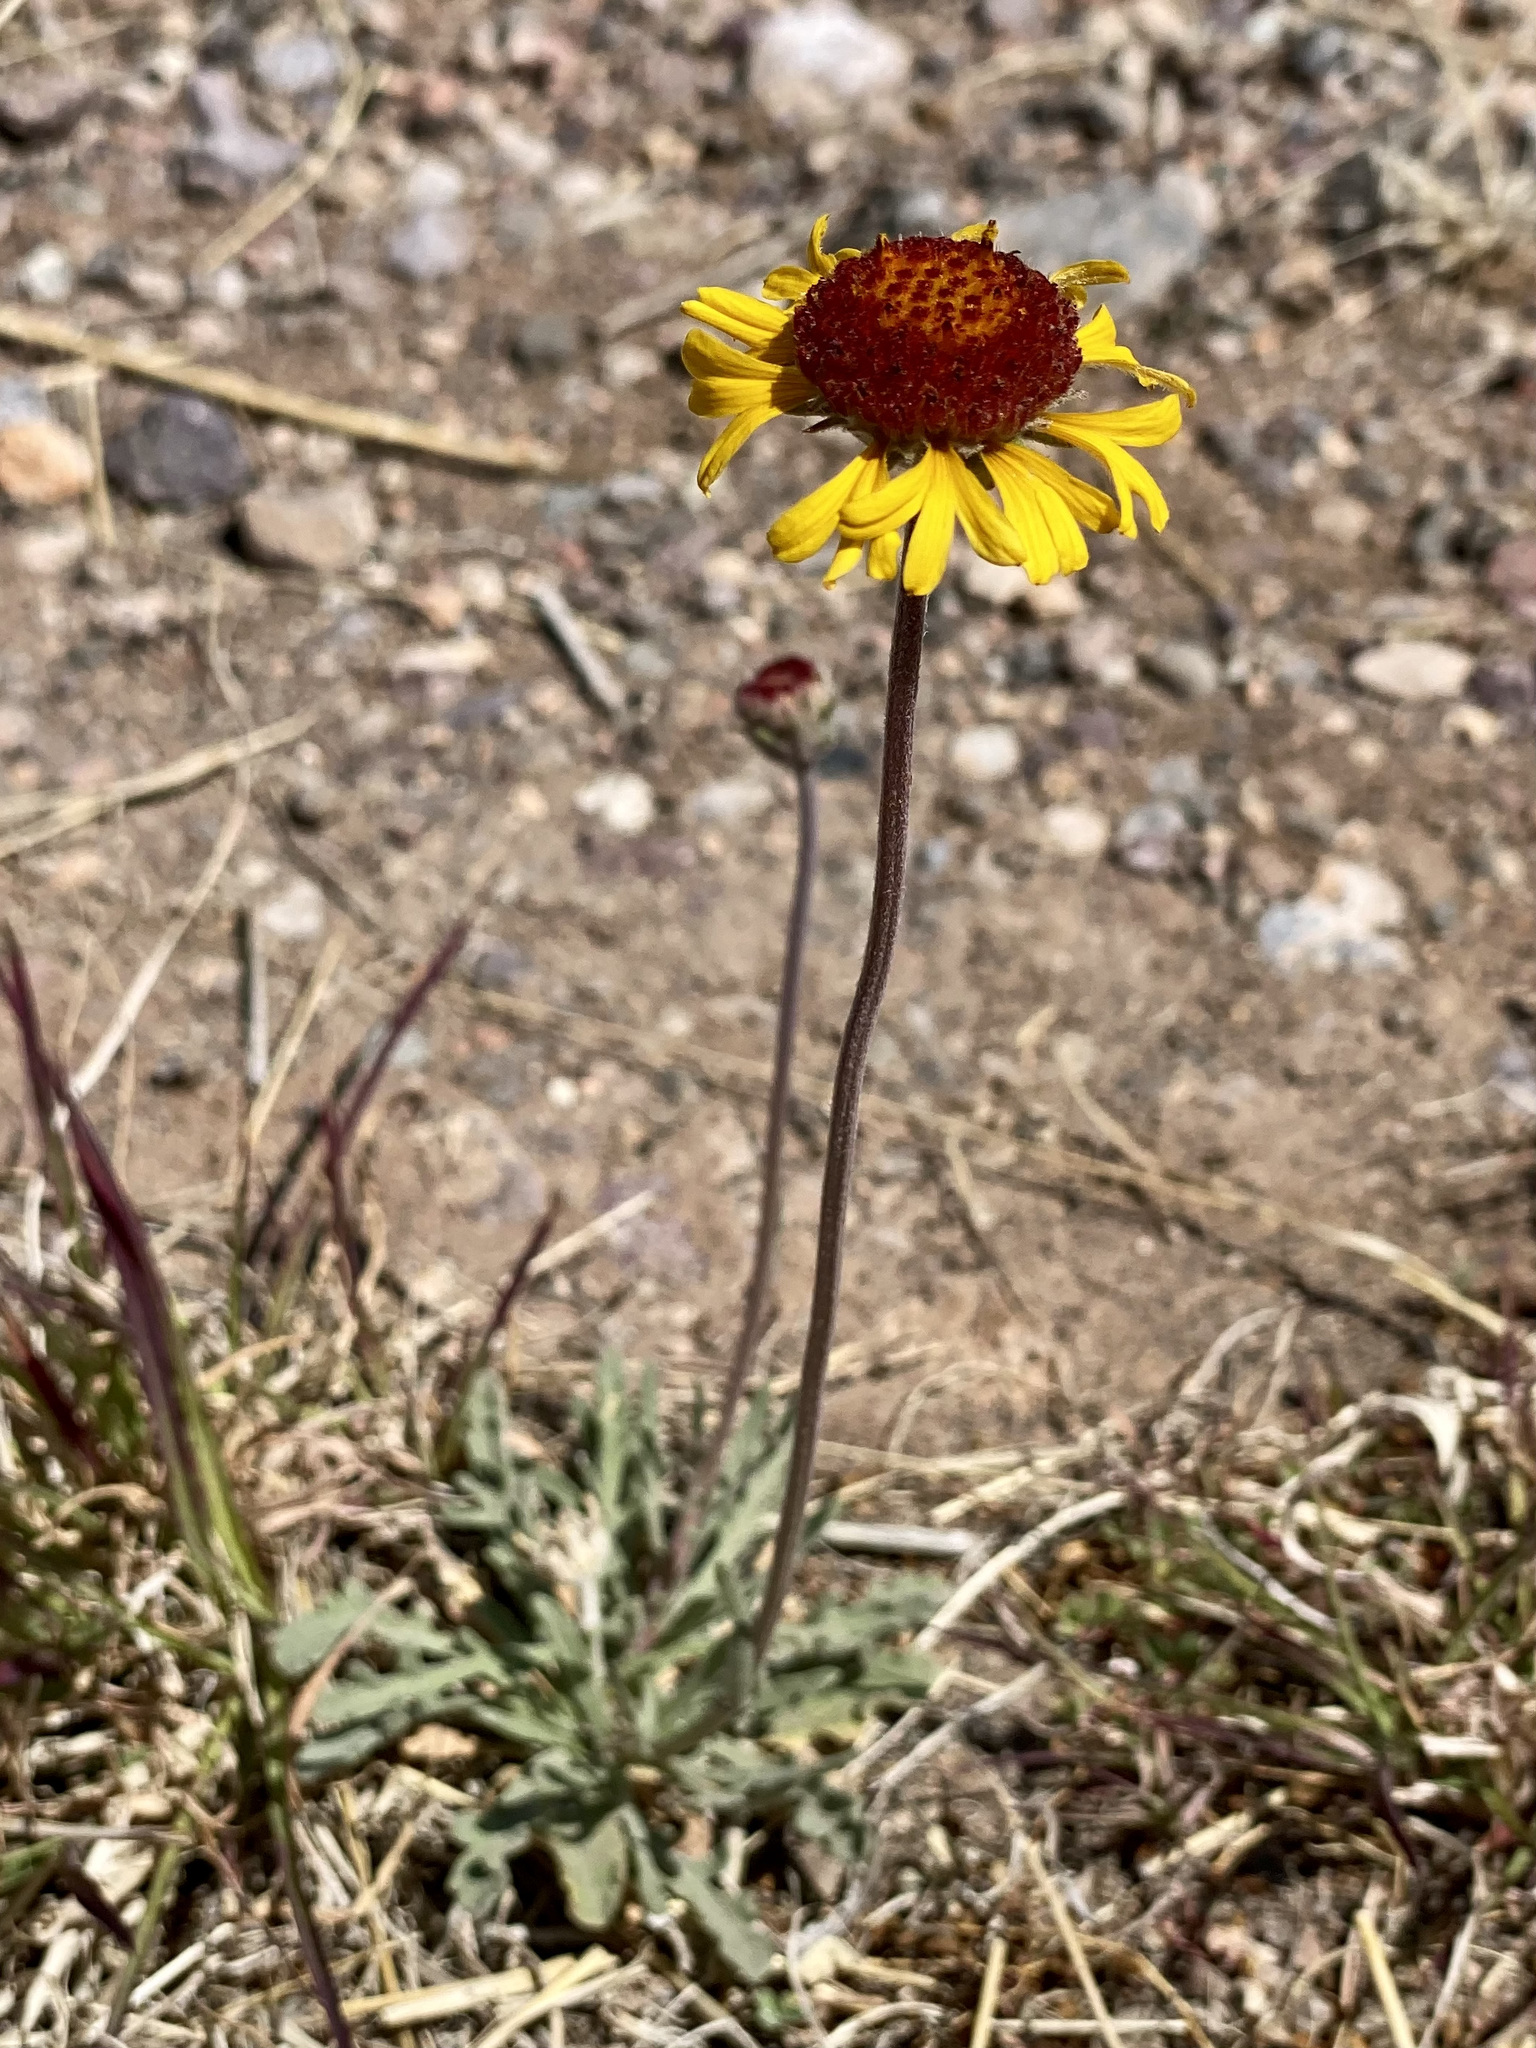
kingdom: Plantae
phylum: Tracheophyta
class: Magnoliopsida
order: Asterales
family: Asteraceae
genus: Gaillardia
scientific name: Gaillardia pinnatifida
